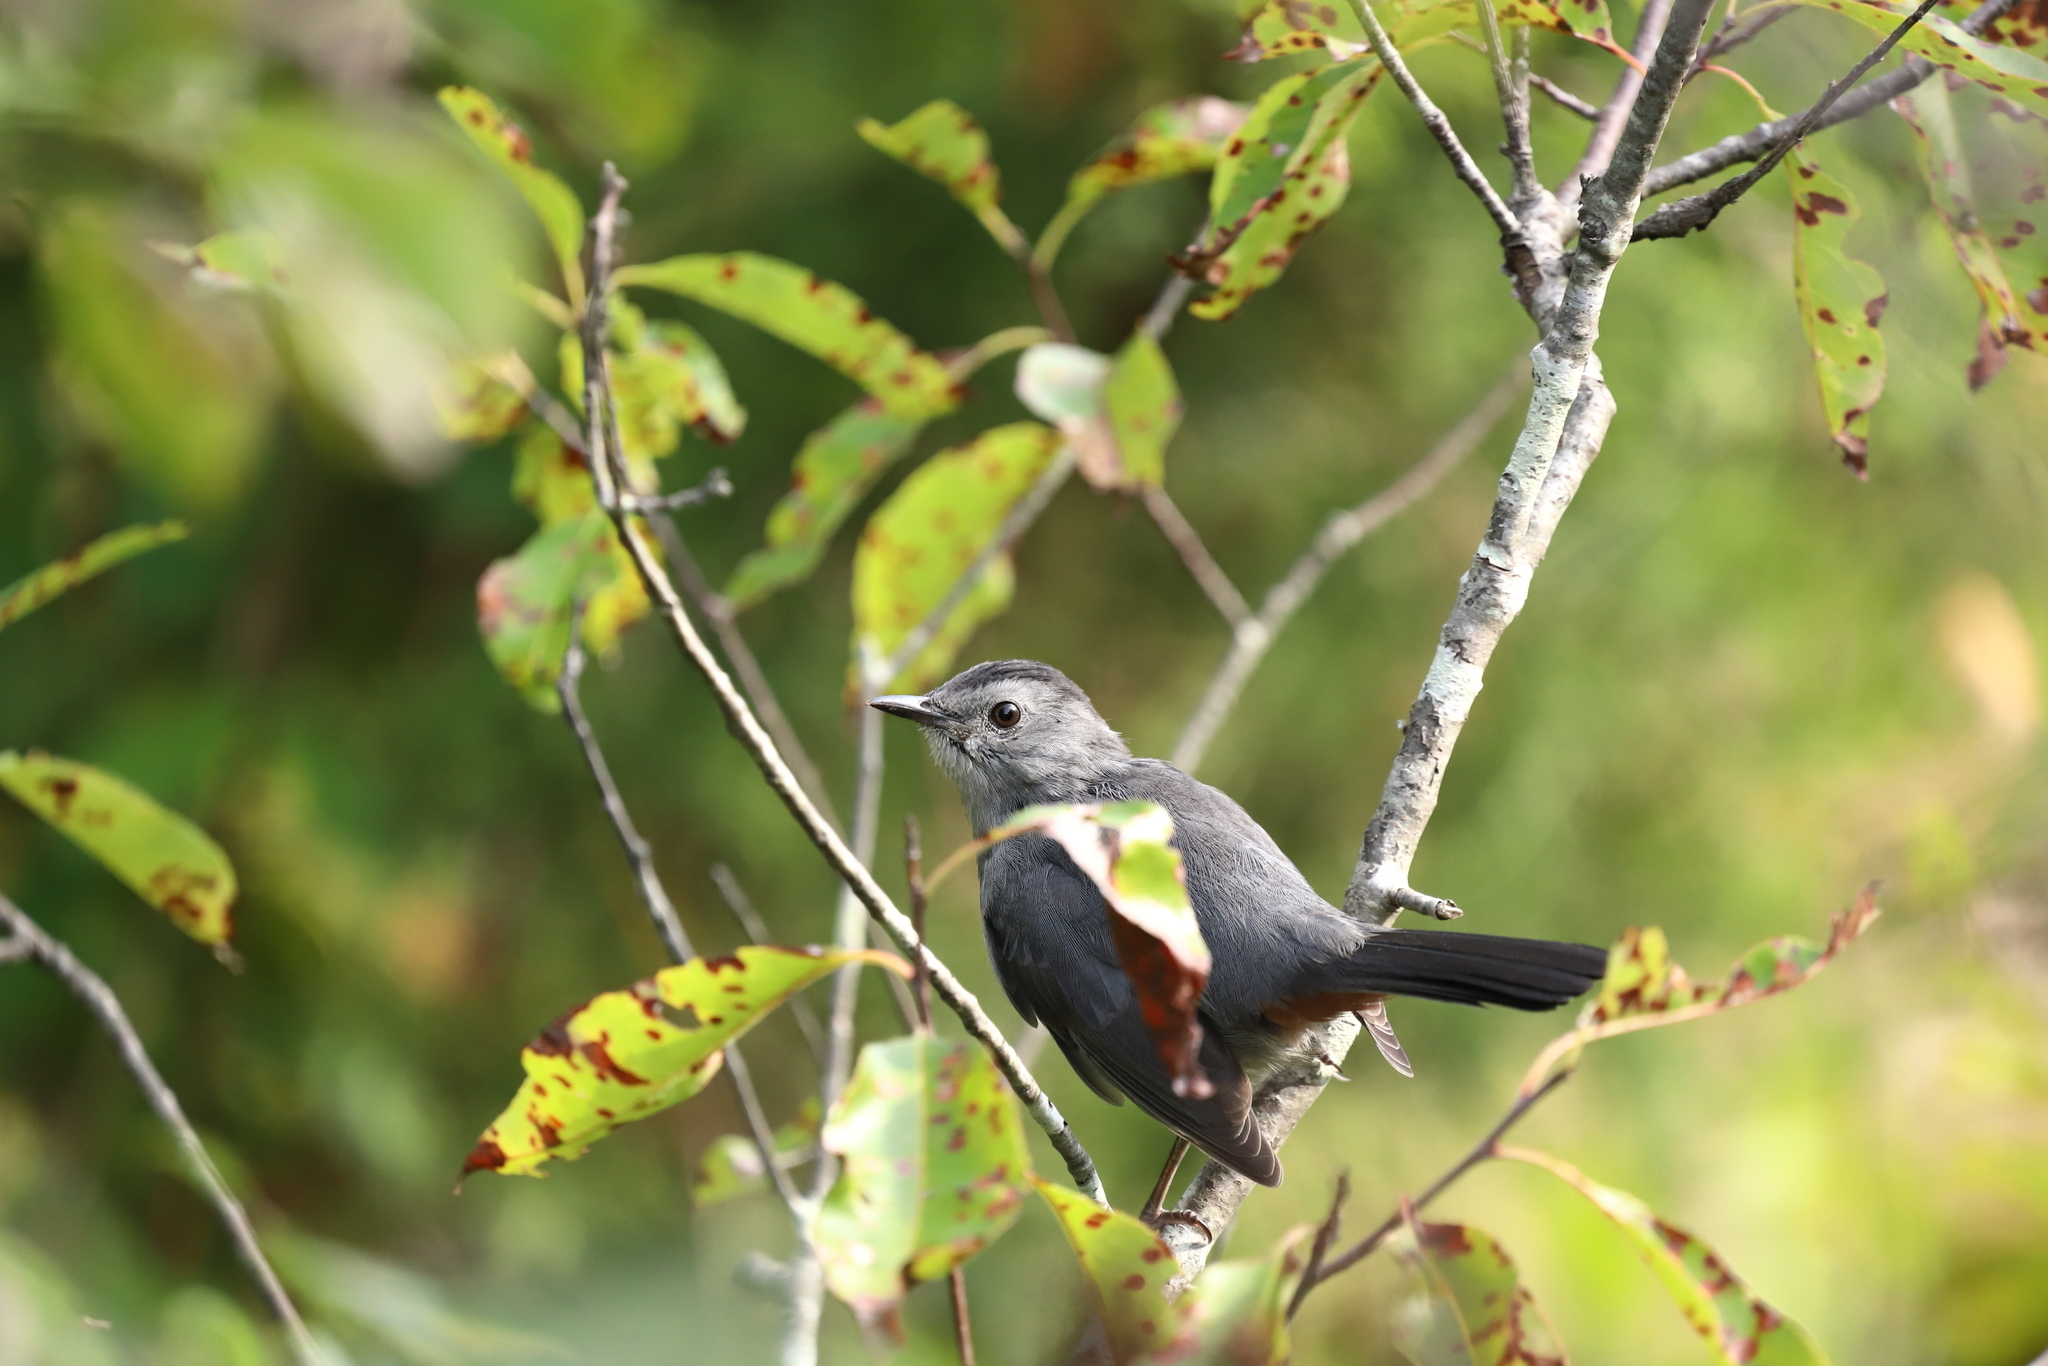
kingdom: Animalia
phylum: Chordata
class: Aves
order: Passeriformes
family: Mimidae
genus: Dumetella
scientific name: Dumetella carolinensis
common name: Gray catbird
